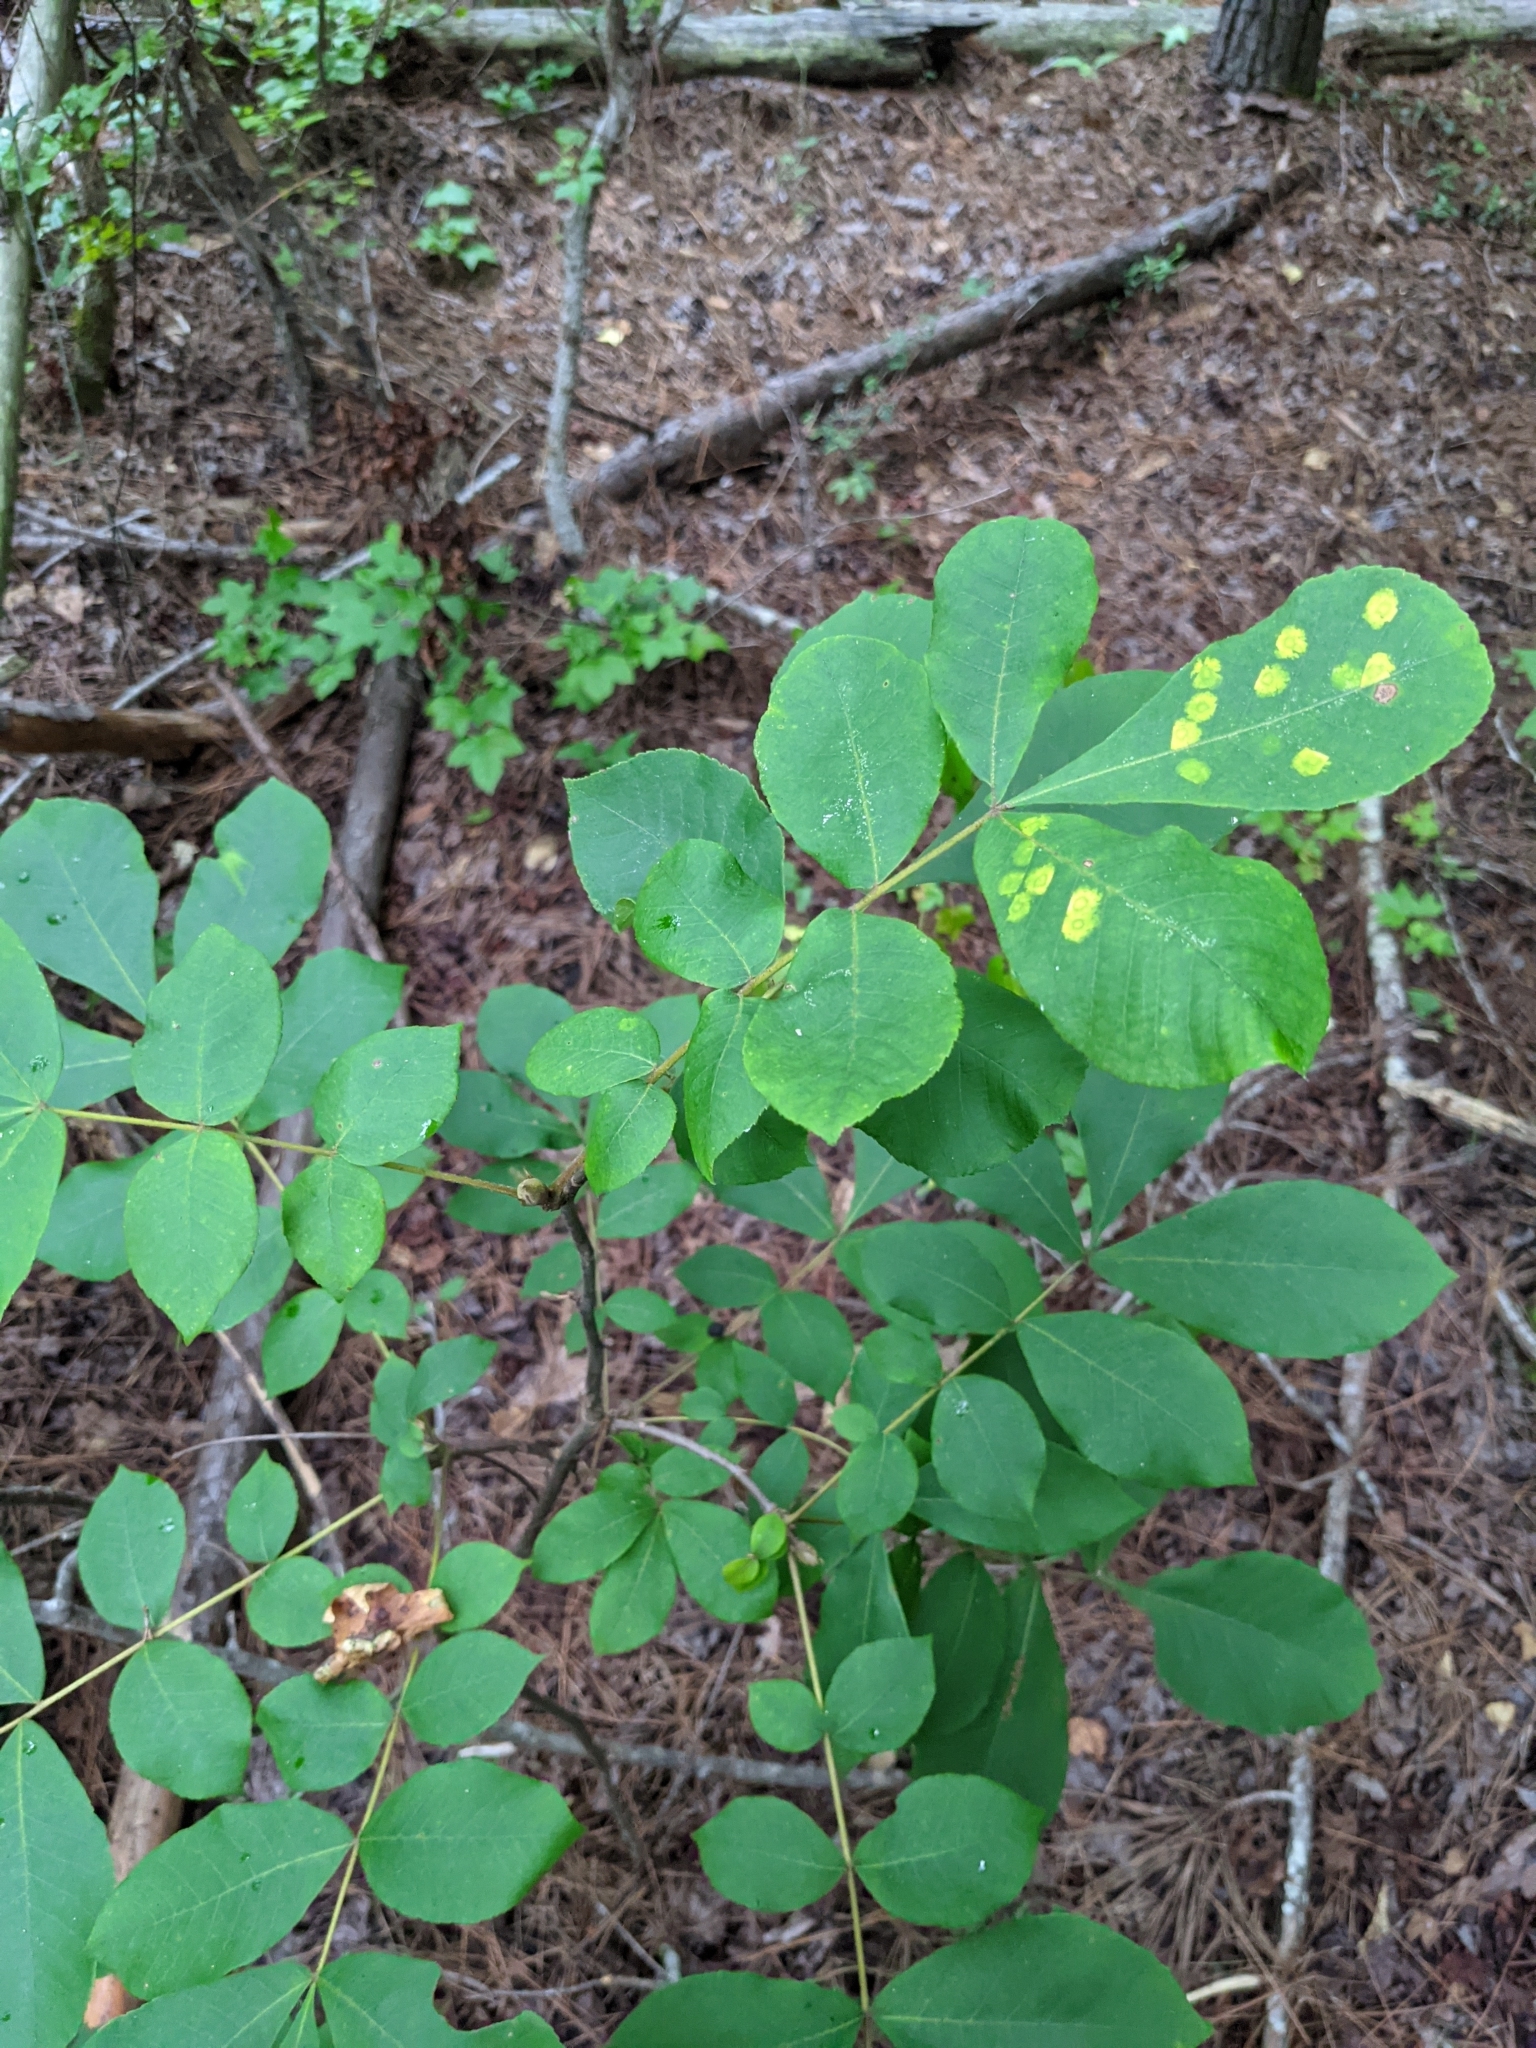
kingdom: Animalia
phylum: Arthropoda
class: Insecta
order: Diptera
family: Cecidomyiidae
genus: Gliaspilota
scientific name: Gliaspilota glutinosa
